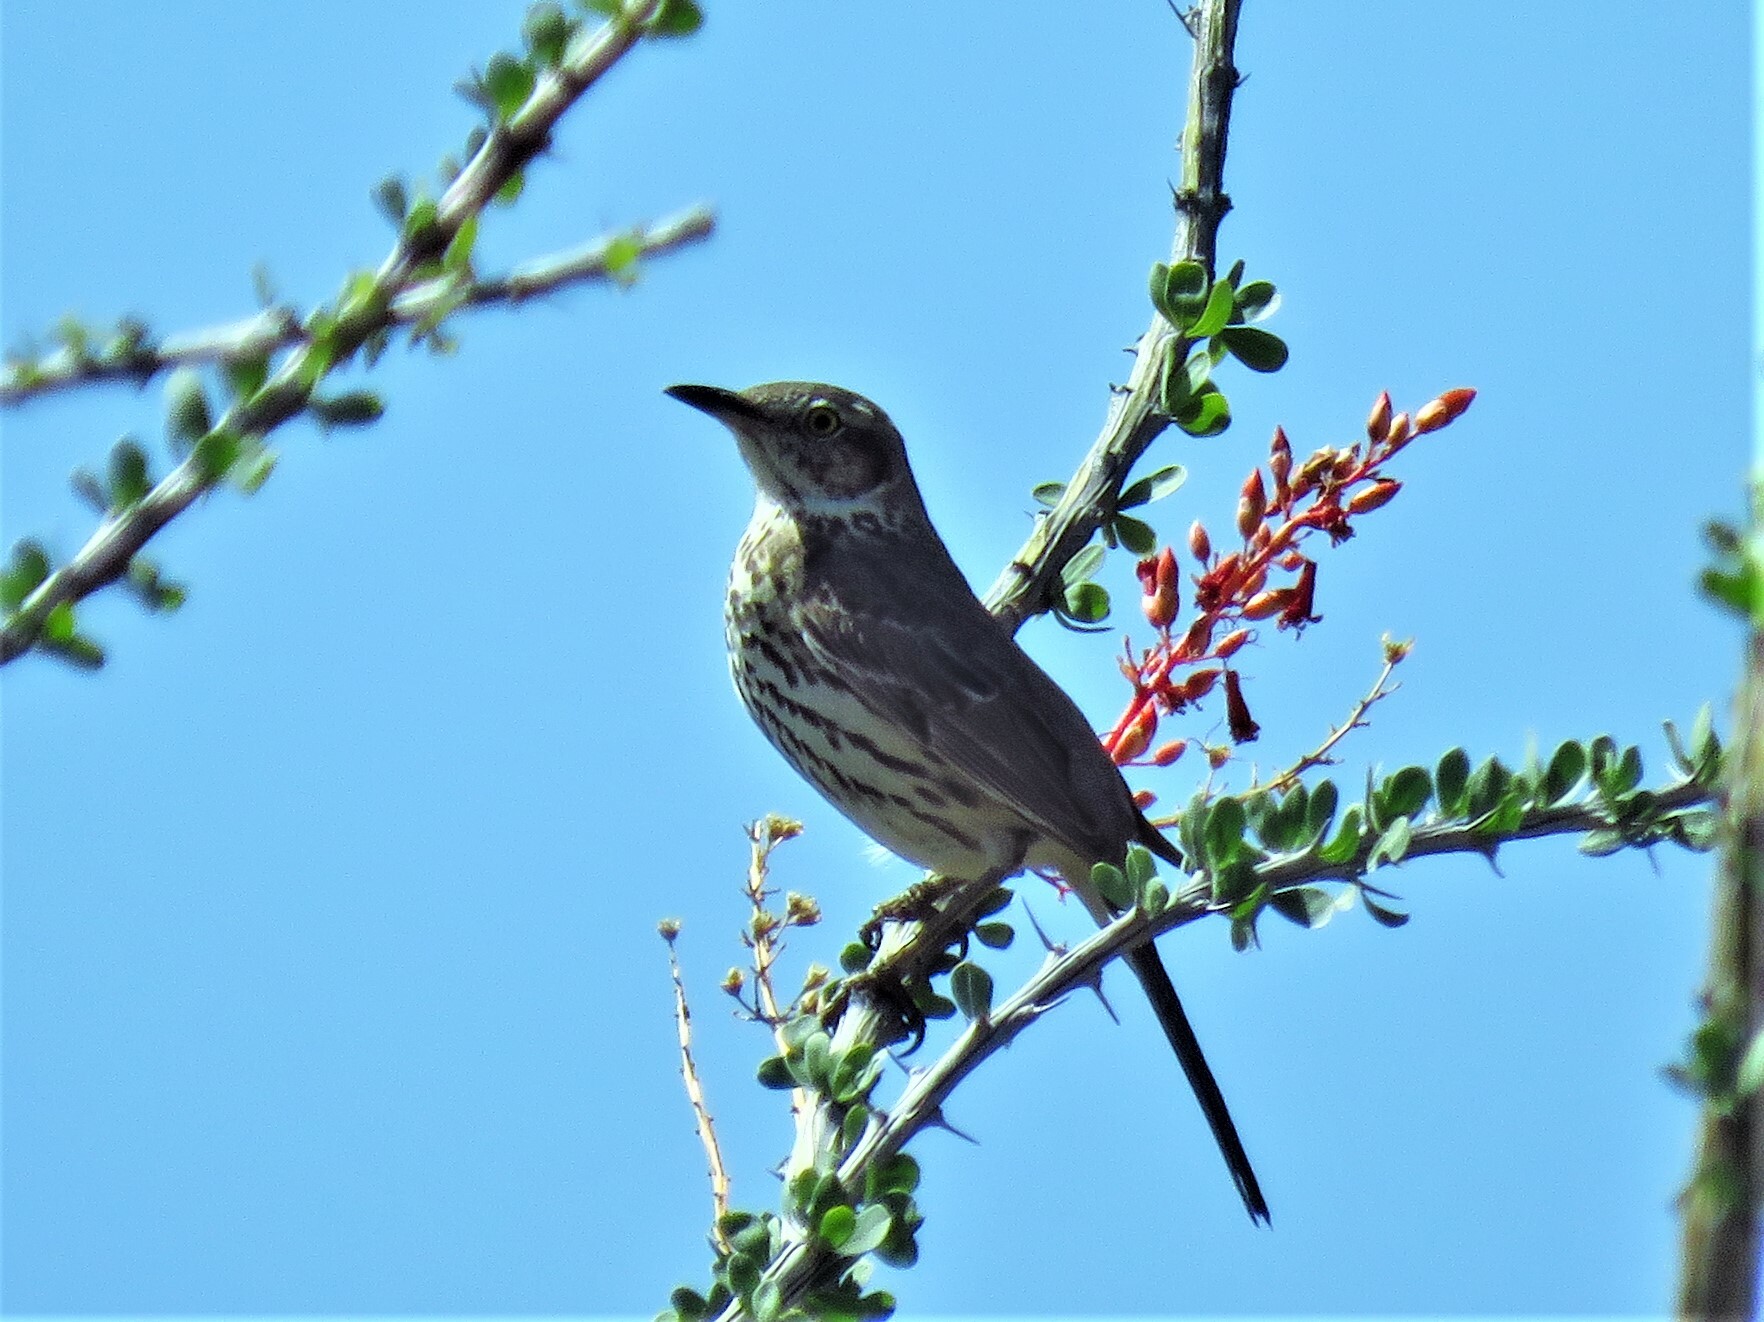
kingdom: Animalia
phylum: Chordata
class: Aves
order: Passeriformes
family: Mimidae
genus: Oreoscoptes
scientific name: Oreoscoptes montanus
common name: Sage thrasher
